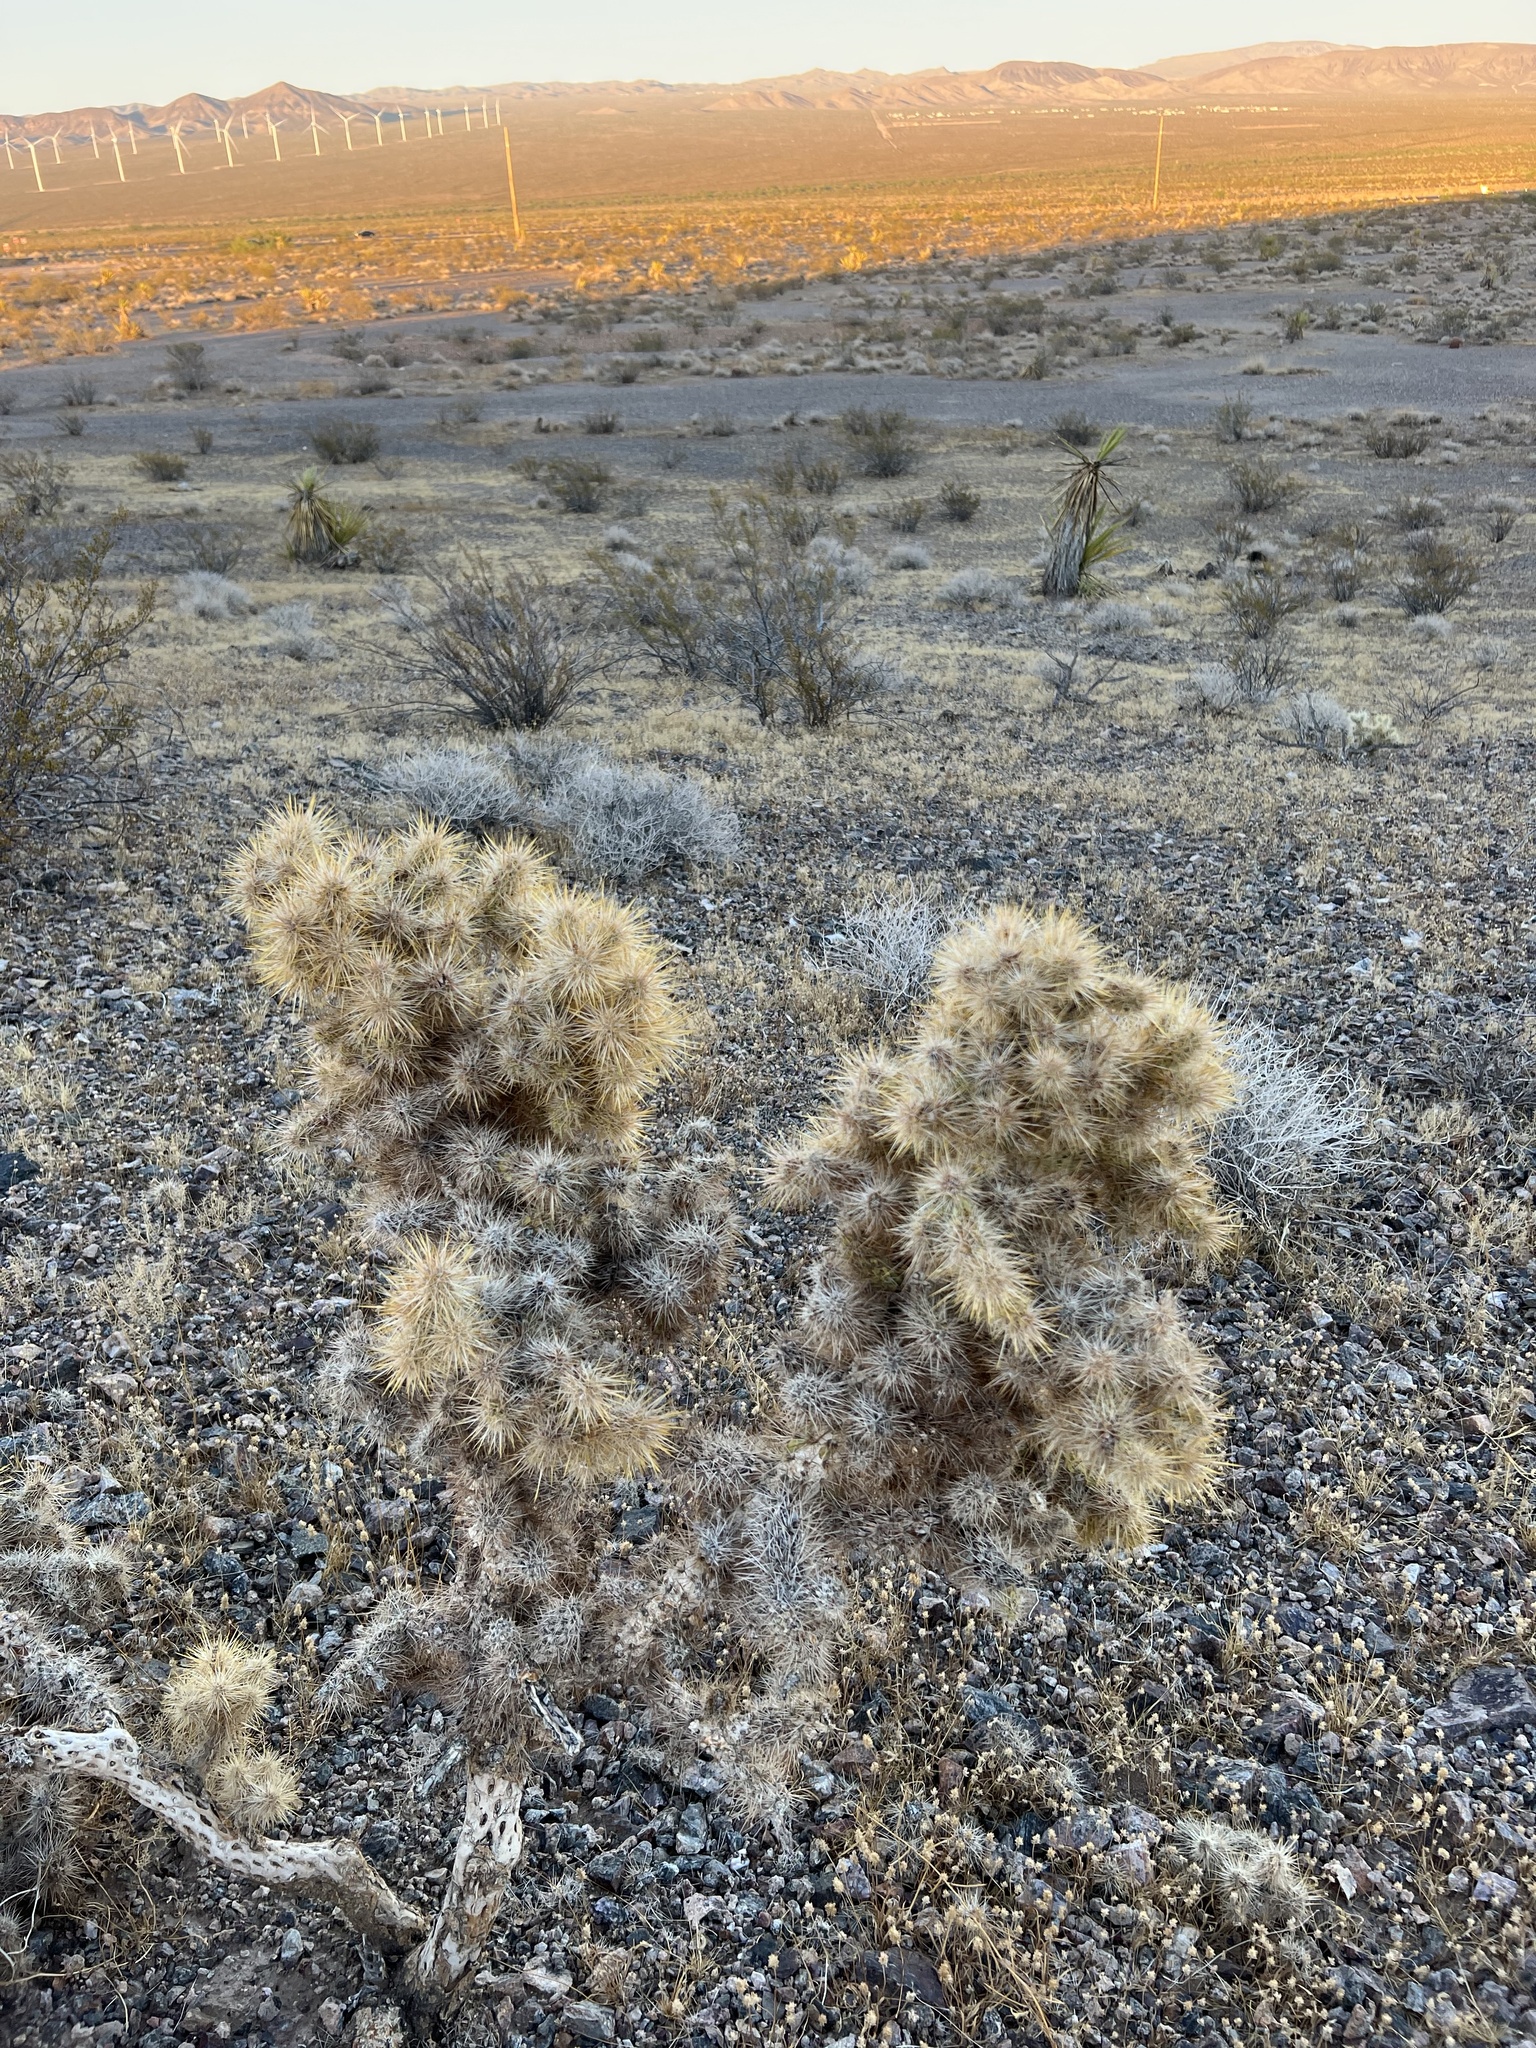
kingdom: Plantae
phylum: Tracheophyta
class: Magnoliopsida
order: Caryophyllales
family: Cactaceae
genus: Cylindropuntia
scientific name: Cylindropuntia echinocarpa
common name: Ground cholla
